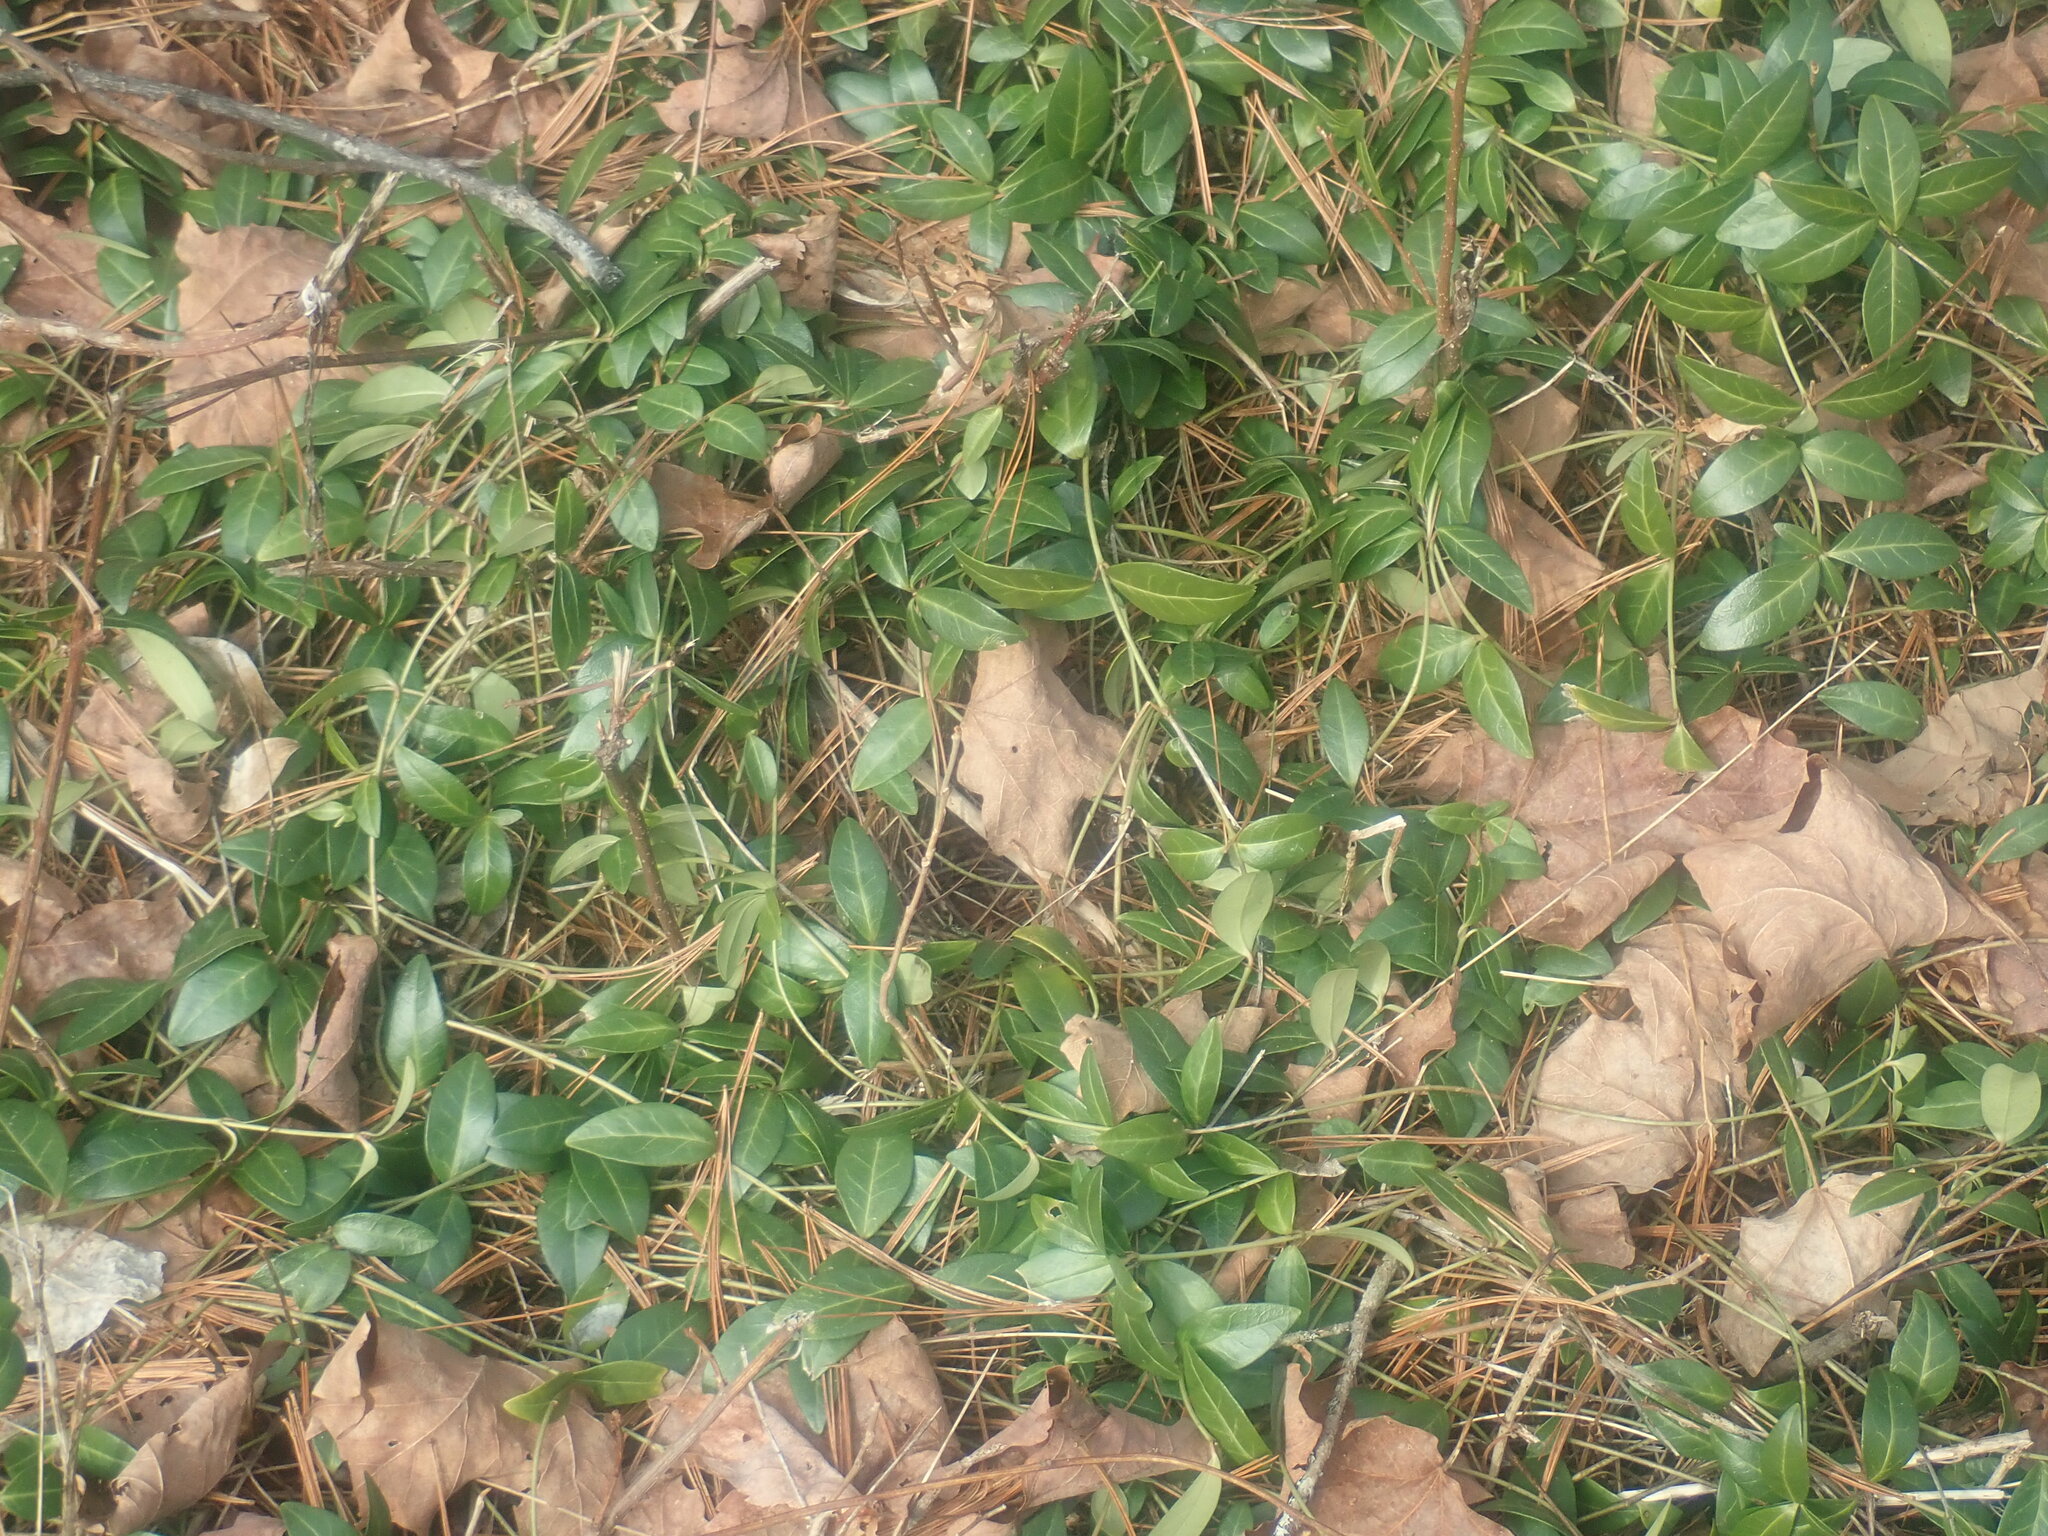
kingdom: Plantae
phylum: Tracheophyta
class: Magnoliopsida
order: Gentianales
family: Apocynaceae
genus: Vinca
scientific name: Vinca minor
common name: Lesser periwinkle
